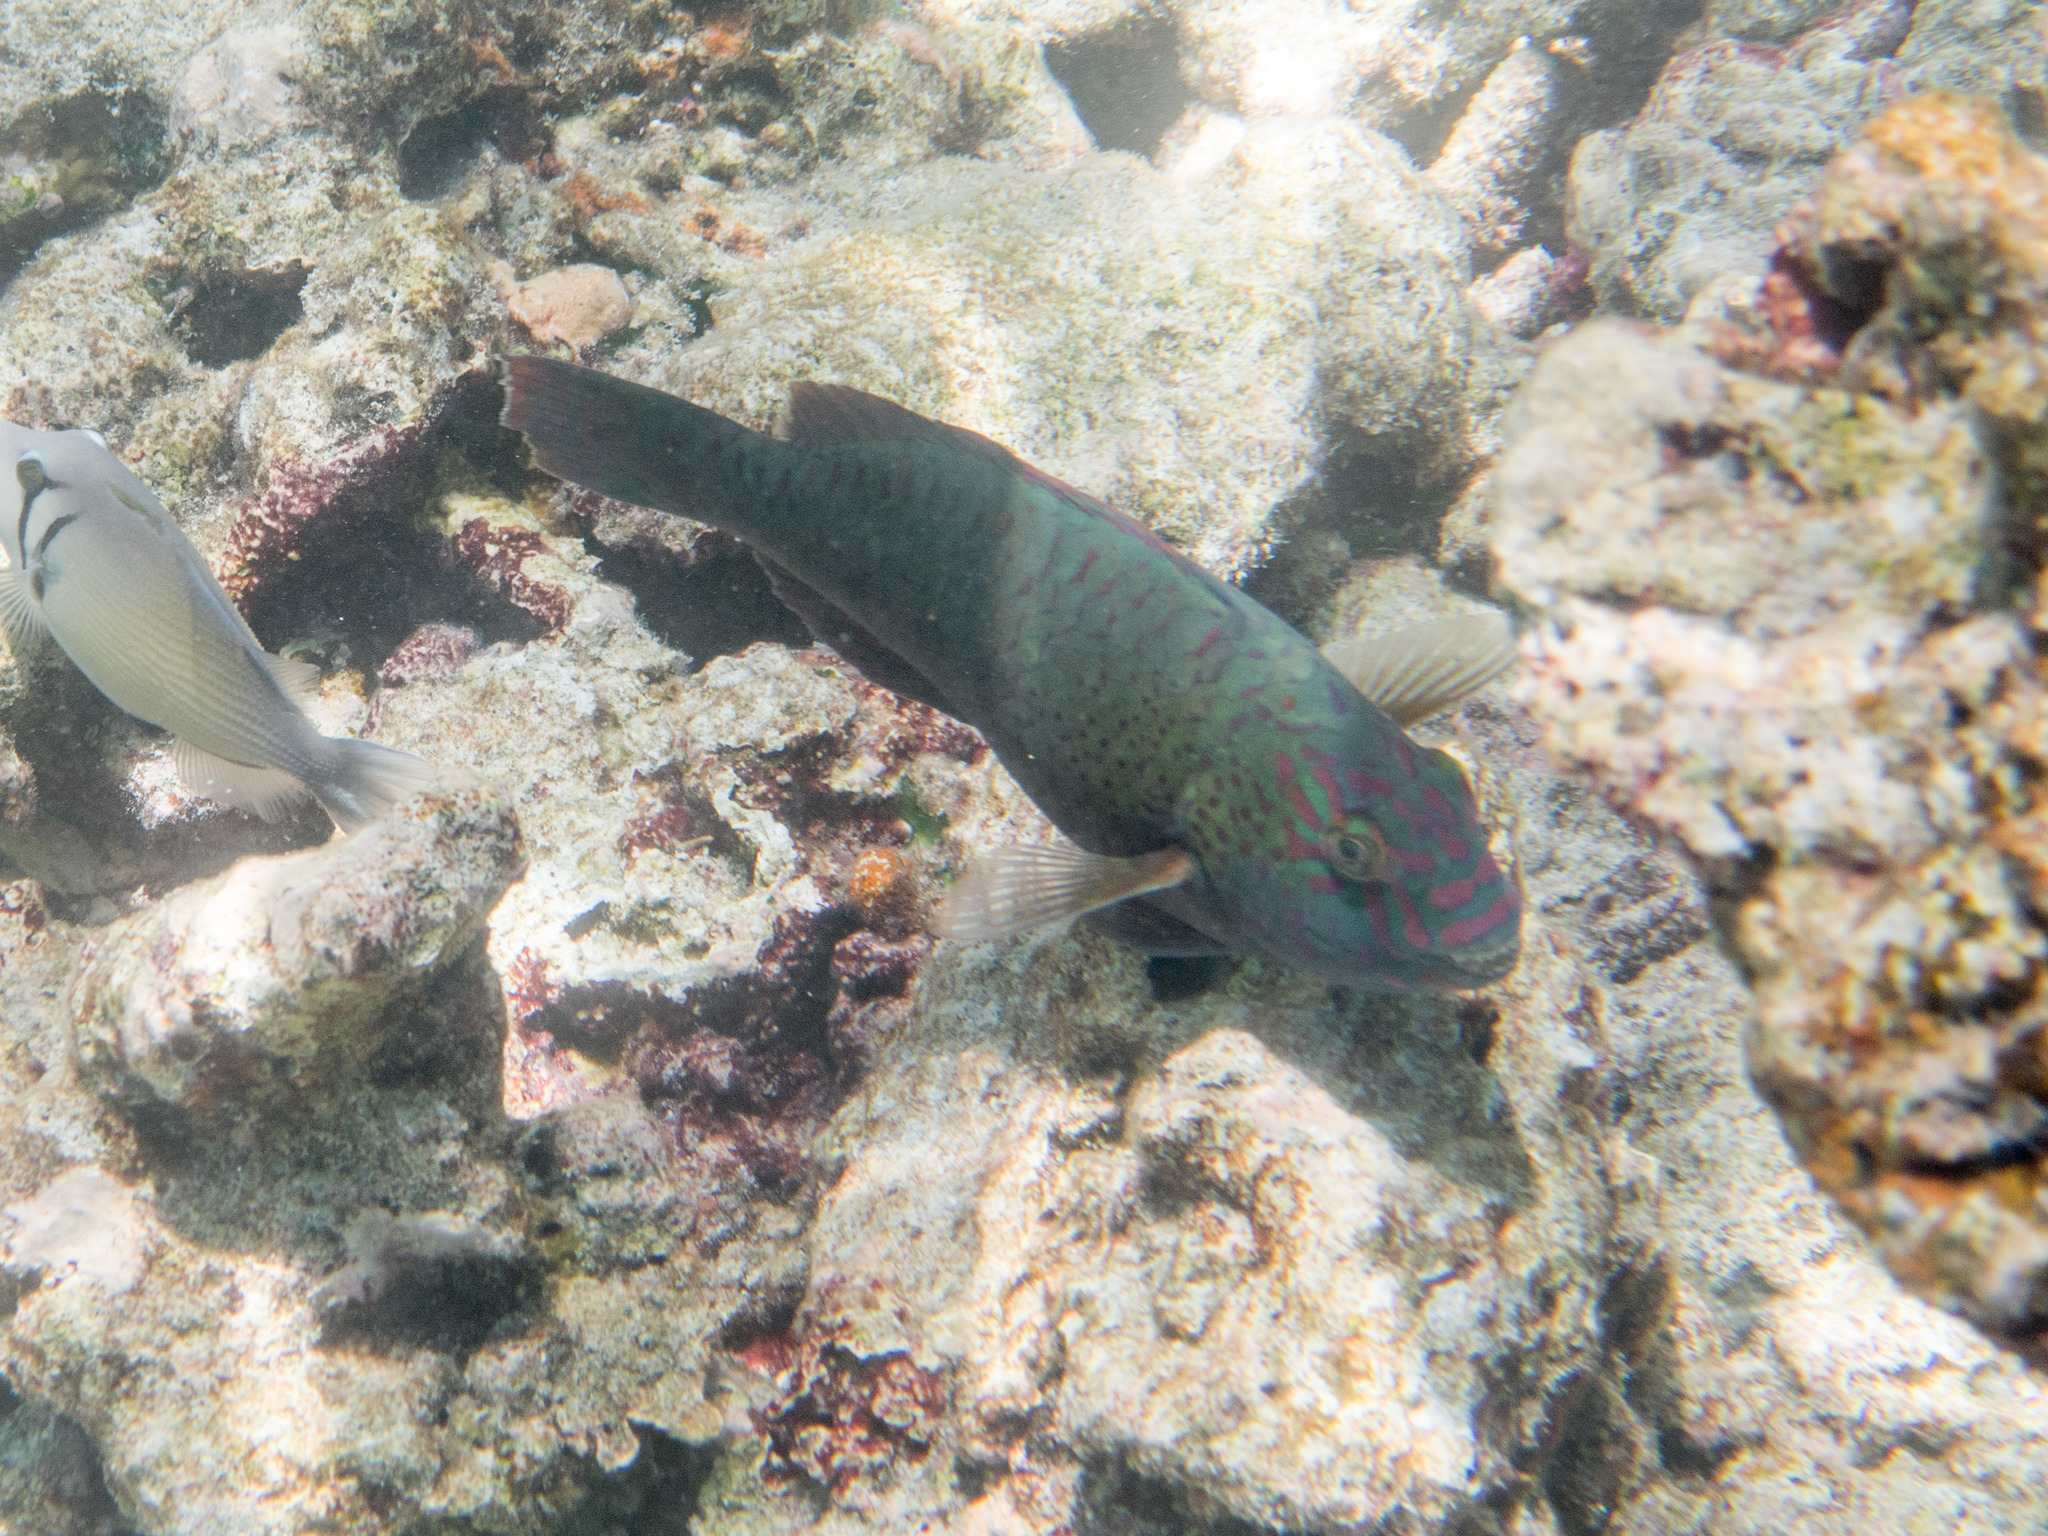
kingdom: Animalia
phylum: Chordata
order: Perciformes
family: Scaridae
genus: Calotomus
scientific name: Calotomus carolinus
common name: Bucktooth
